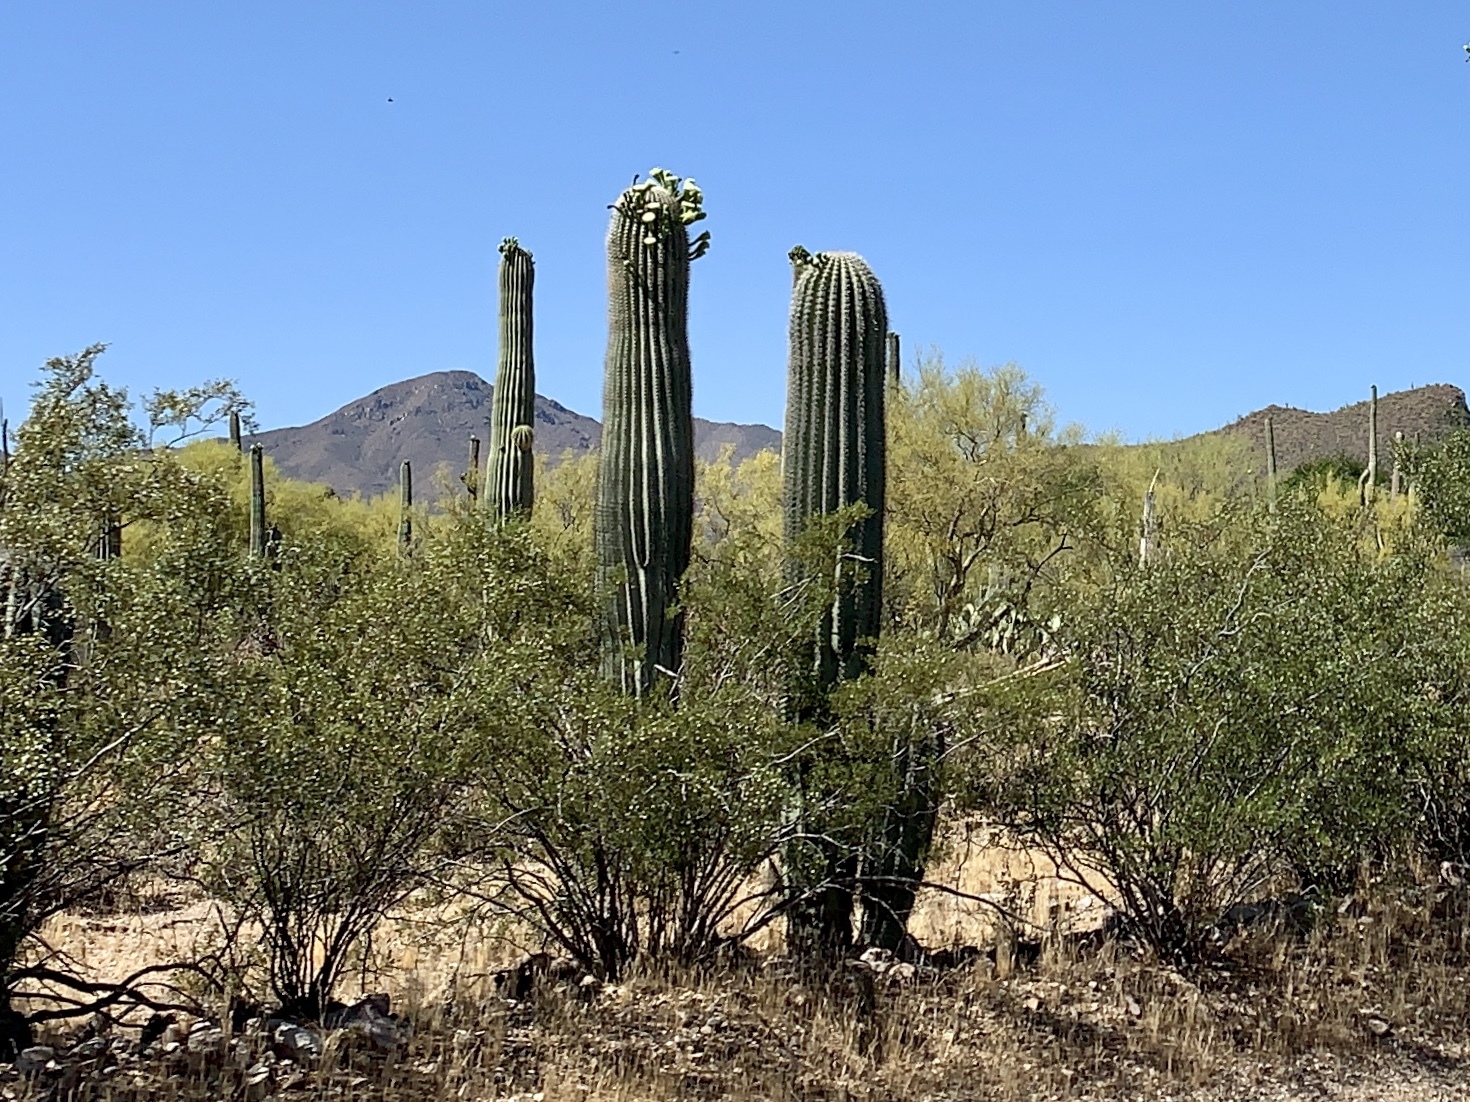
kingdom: Plantae
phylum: Tracheophyta
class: Magnoliopsida
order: Caryophyllales
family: Cactaceae
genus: Carnegiea
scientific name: Carnegiea gigantea
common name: Saguaro
